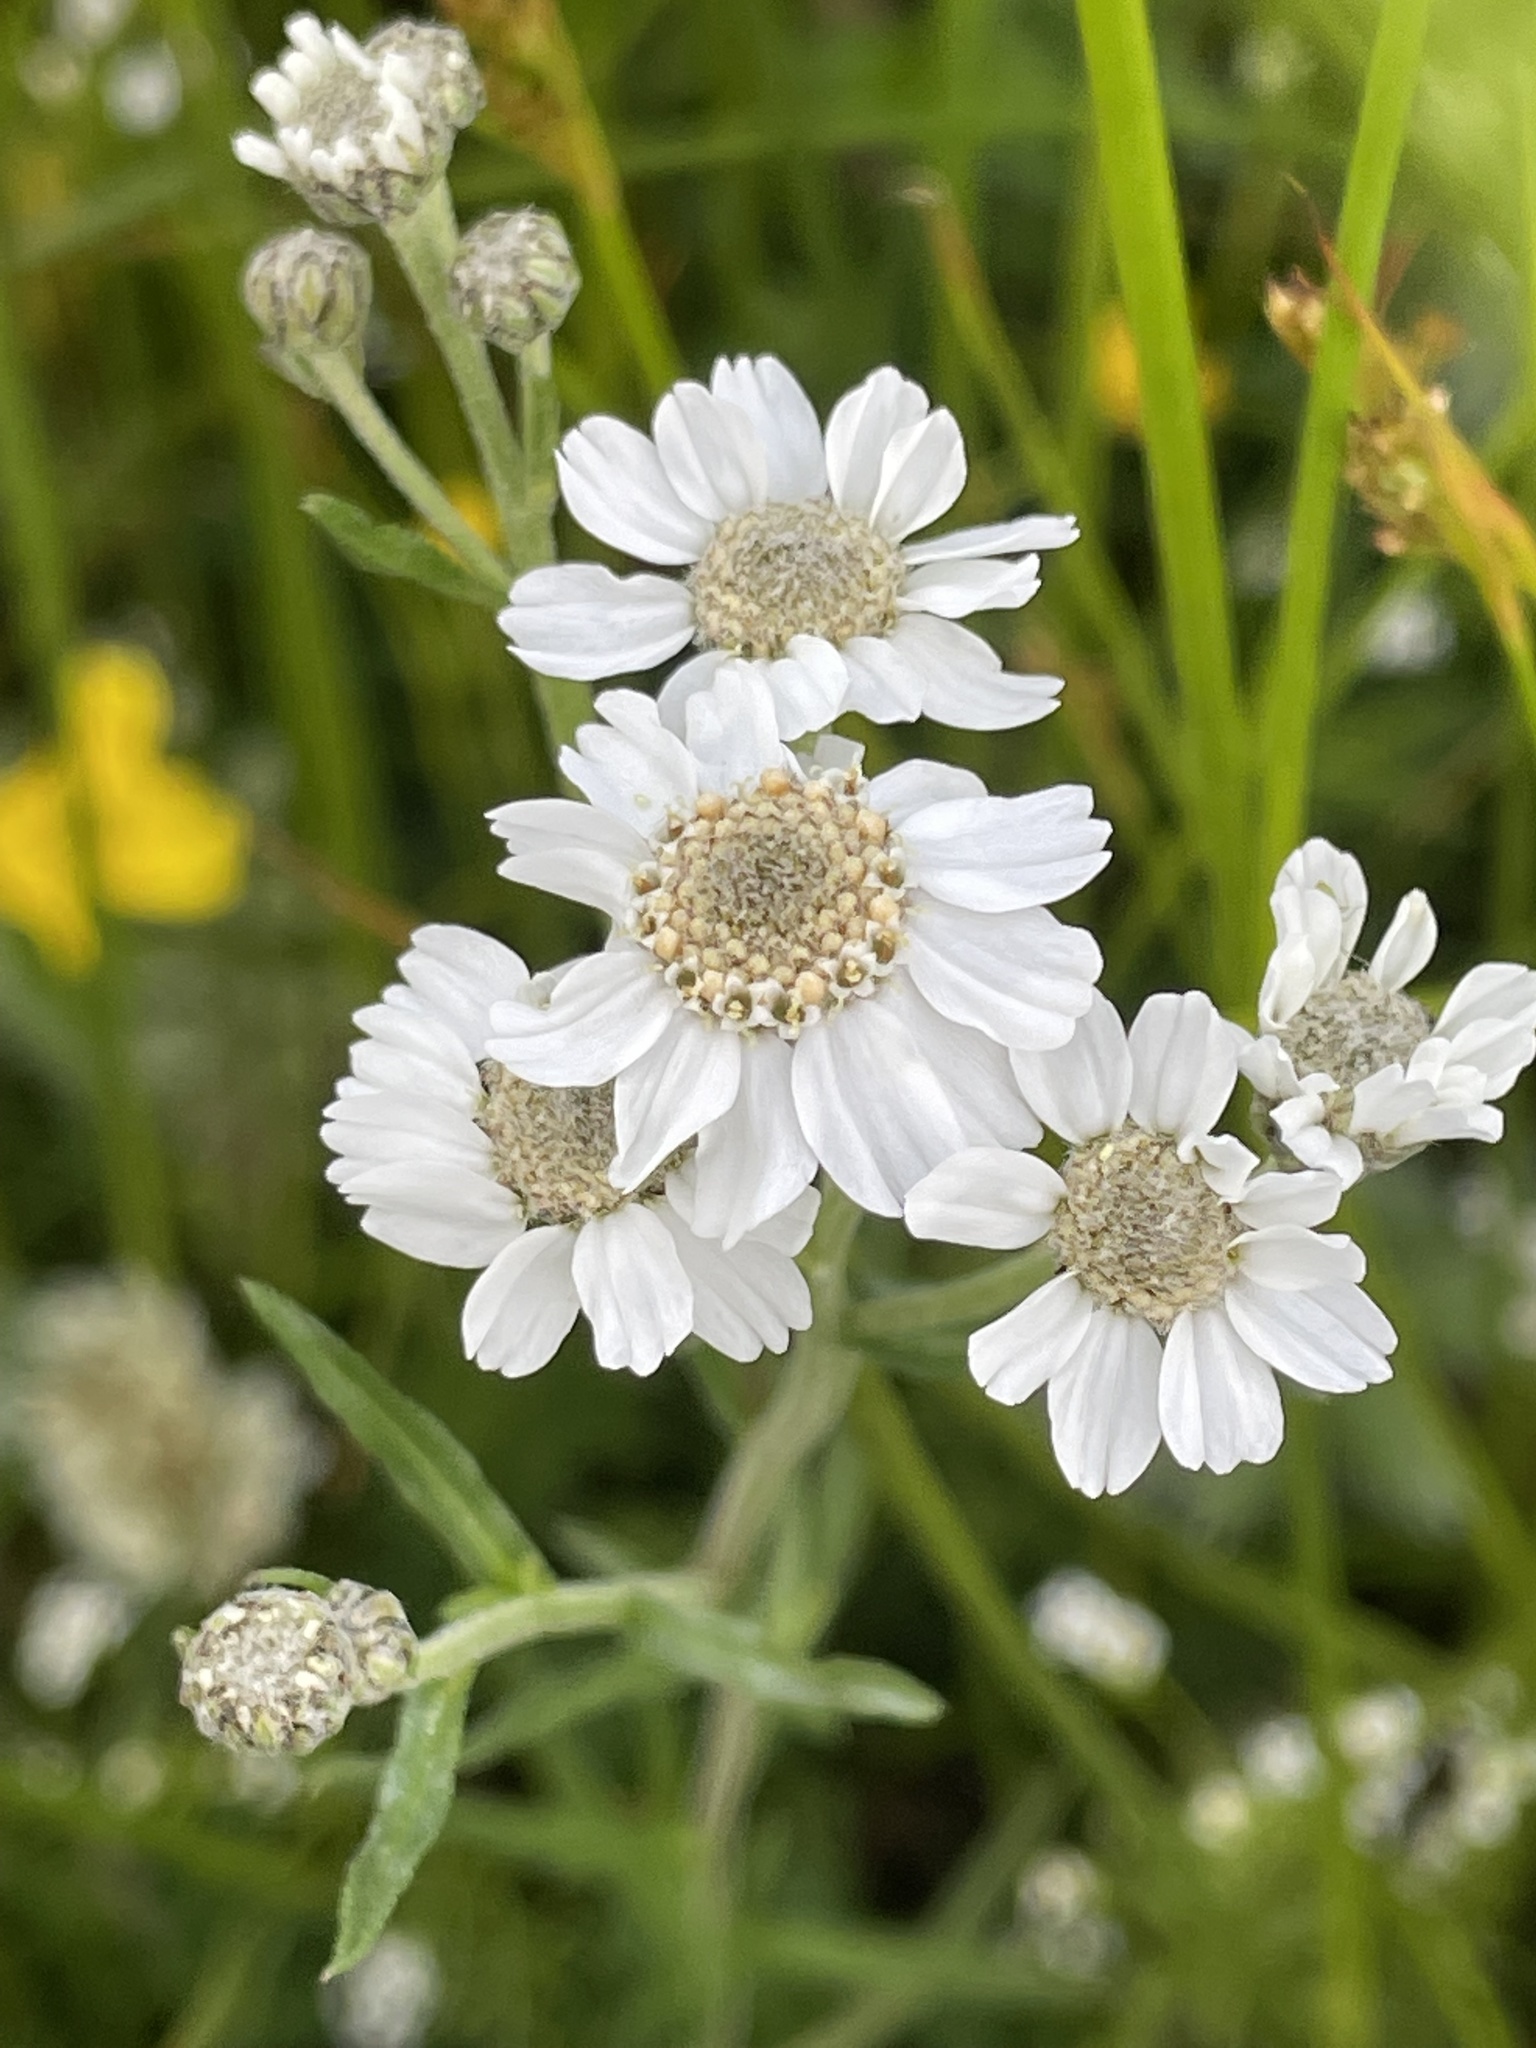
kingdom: Plantae
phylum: Tracheophyta
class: Magnoliopsida
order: Asterales
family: Asteraceae
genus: Achillea
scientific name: Achillea ptarmica
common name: Sneezeweed
